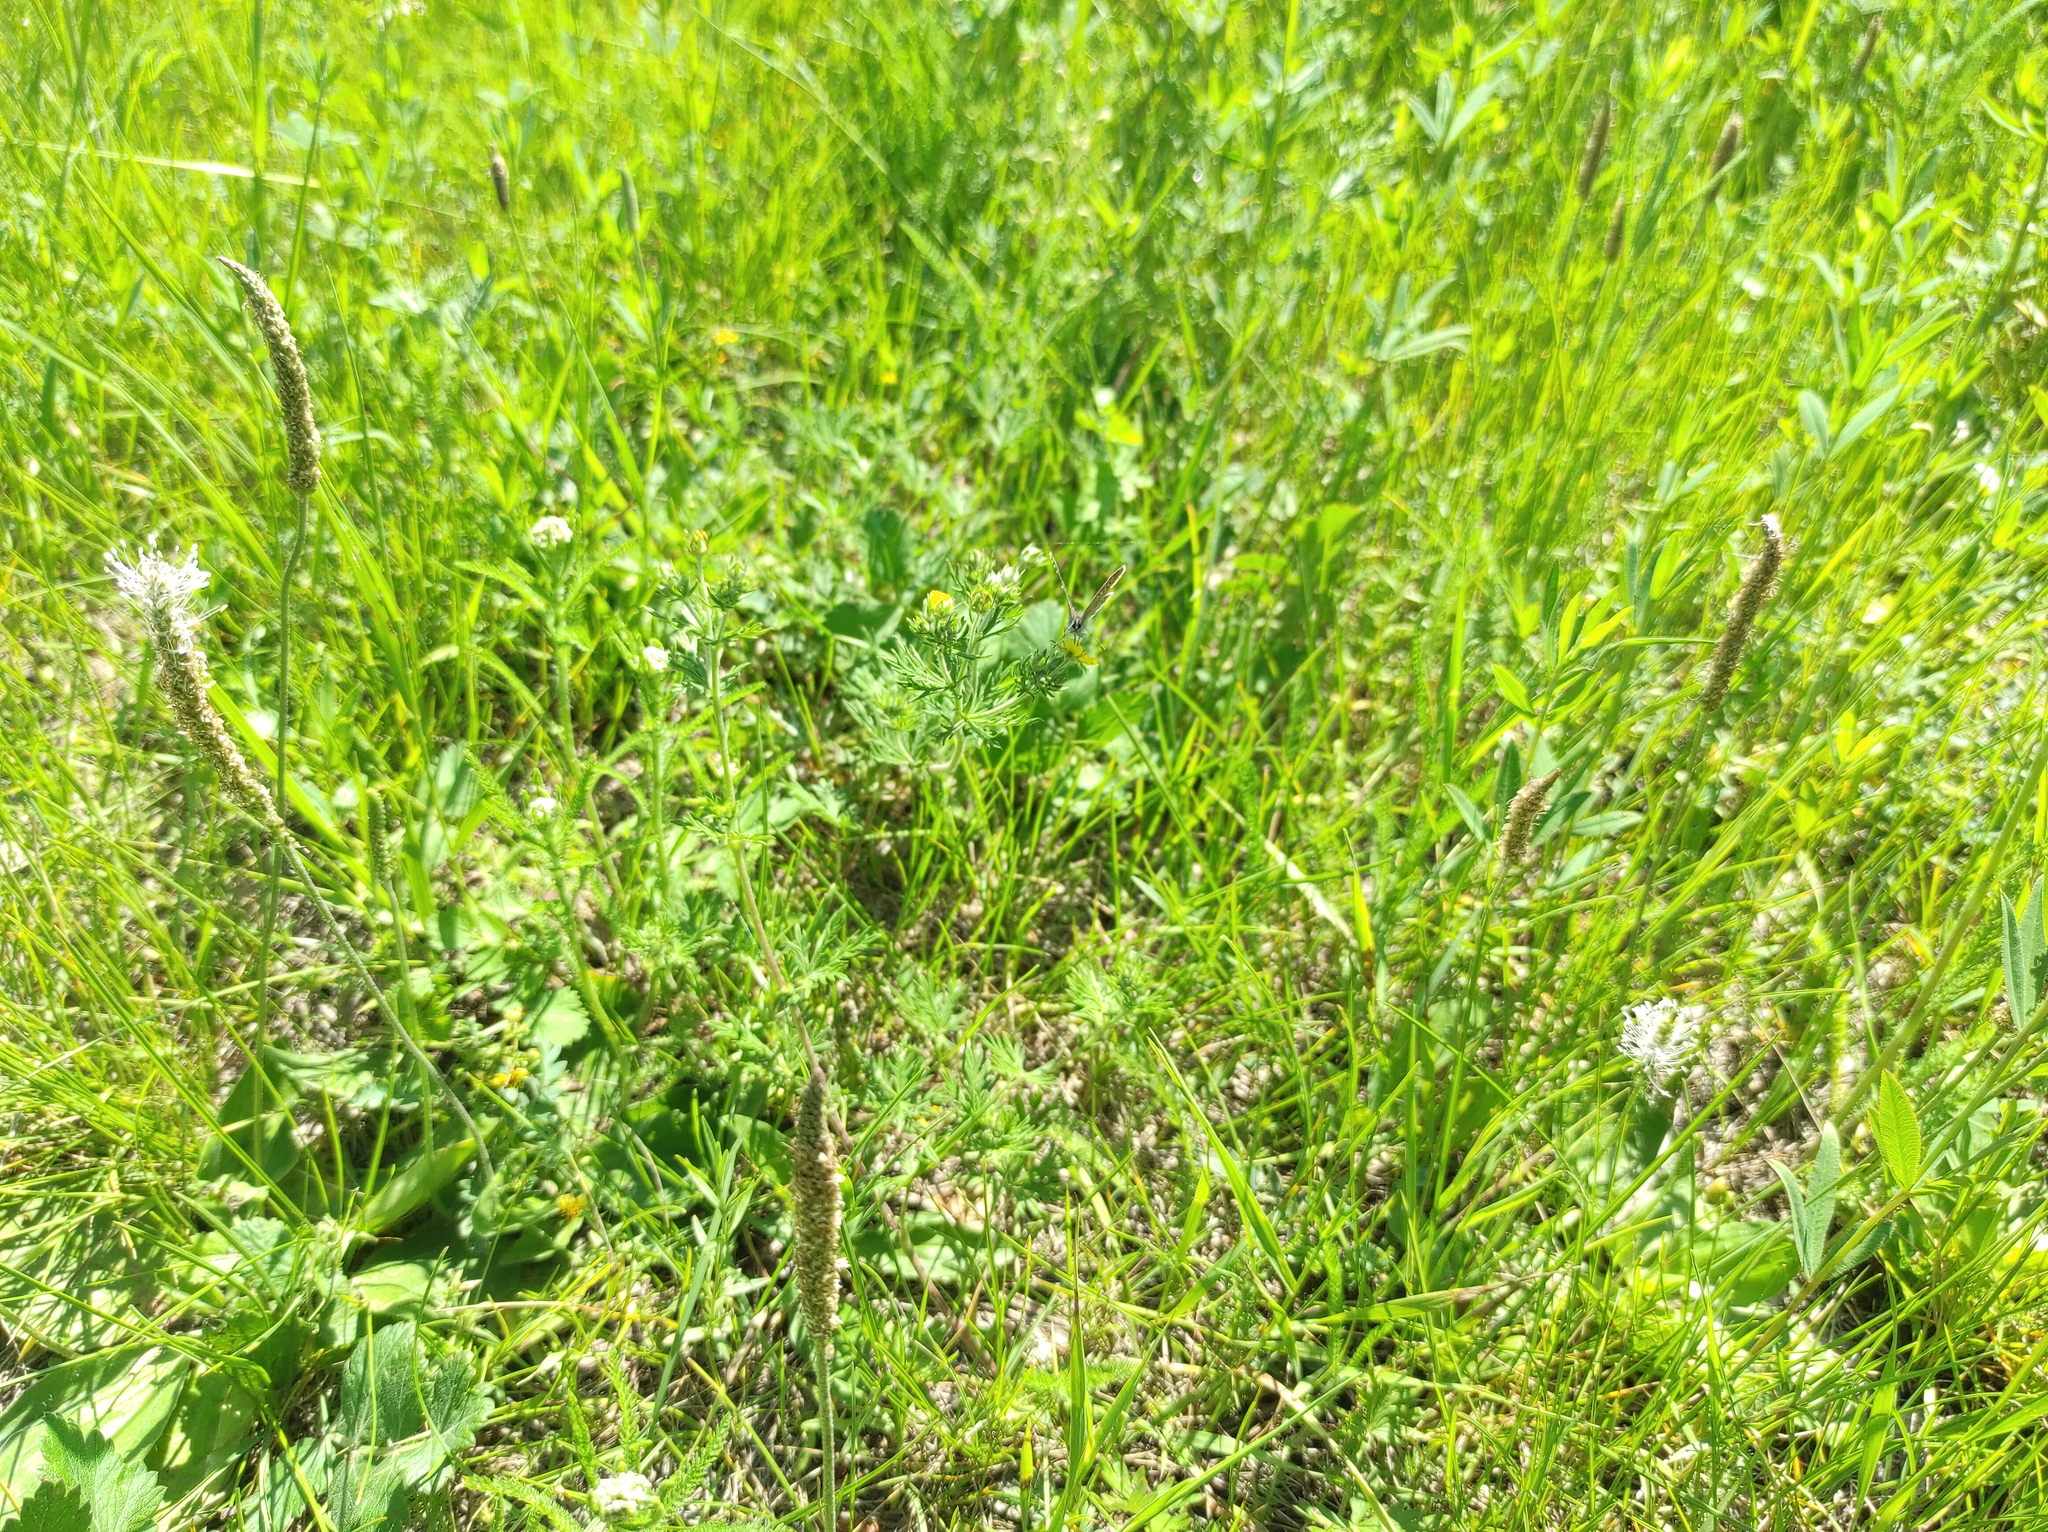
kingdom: Animalia
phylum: Arthropoda
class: Insecta
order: Lepidoptera
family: Lycaenidae
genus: Aricia
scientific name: Aricia artaxerxes
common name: Northern brown argus
